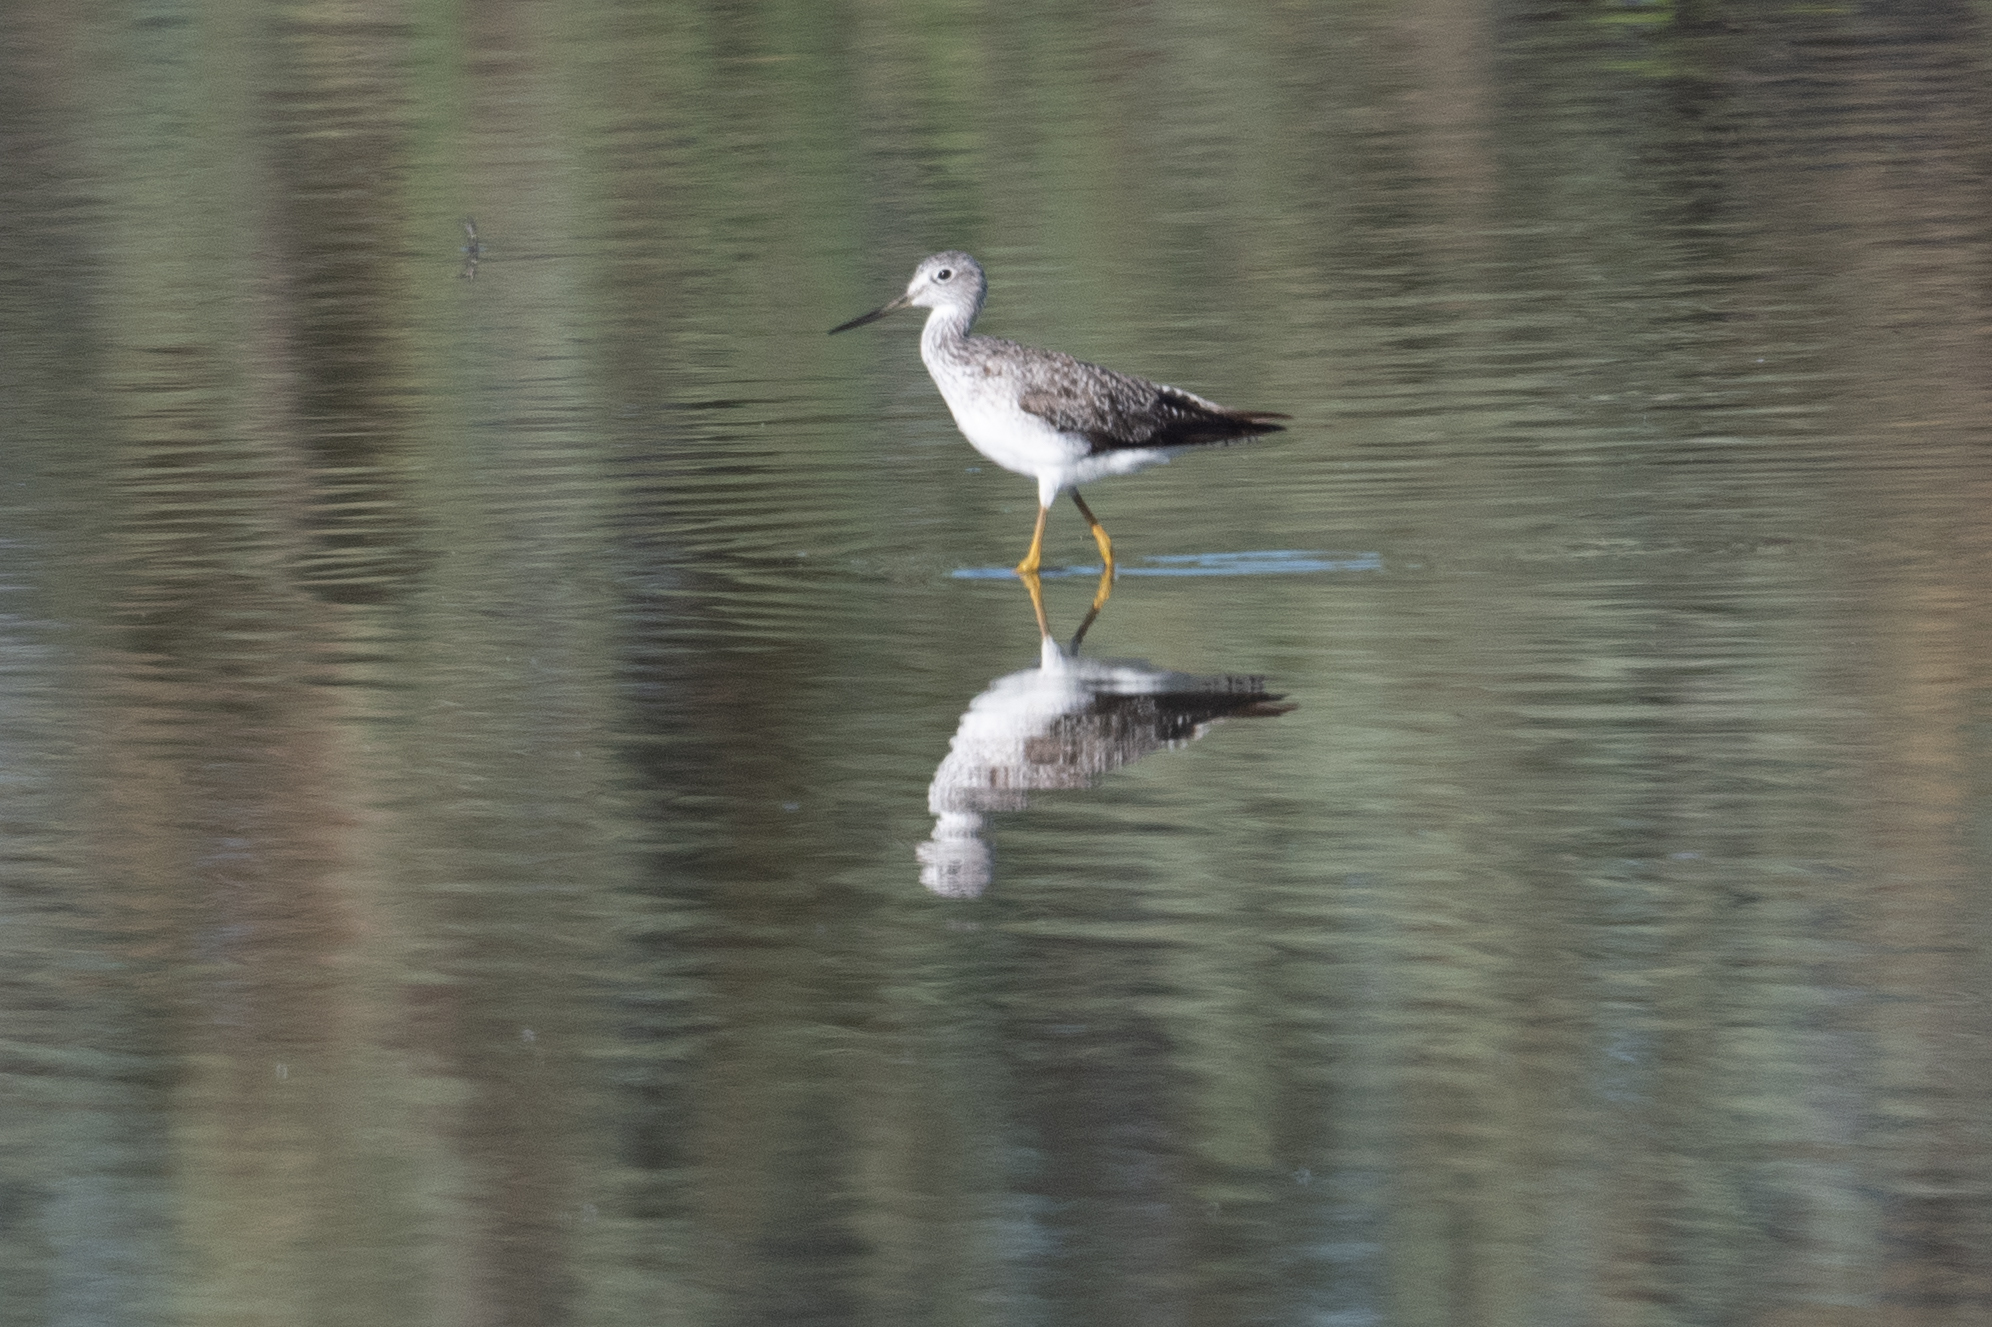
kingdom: Animalia
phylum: Chordata
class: Aves
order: Charadriiformes
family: Scolopacidae
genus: Tringa
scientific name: Tringa melanoleuca
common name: Greater yellowlegs
